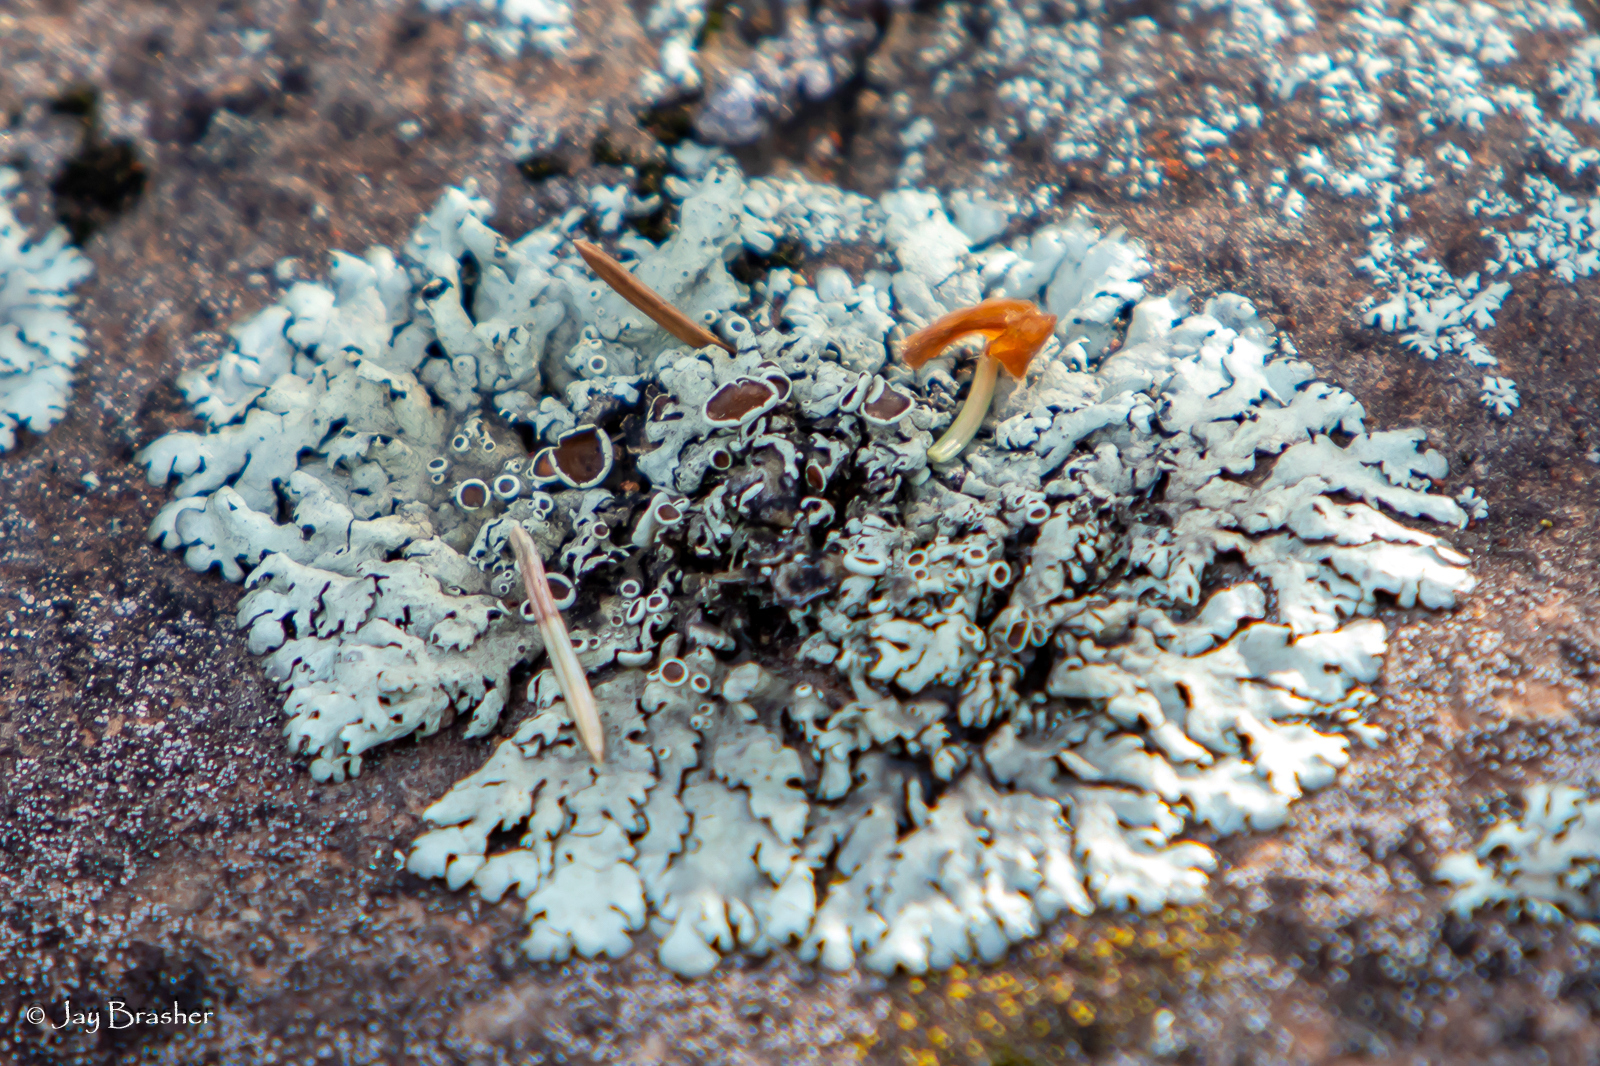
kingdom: Fungi
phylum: Ascomycota
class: Lecanoromycetes
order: Lecanorales
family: Parmeliaceae
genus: Xanthoparmelia
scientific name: Xanthoparmelia conspersa
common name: Peppered rock shield
